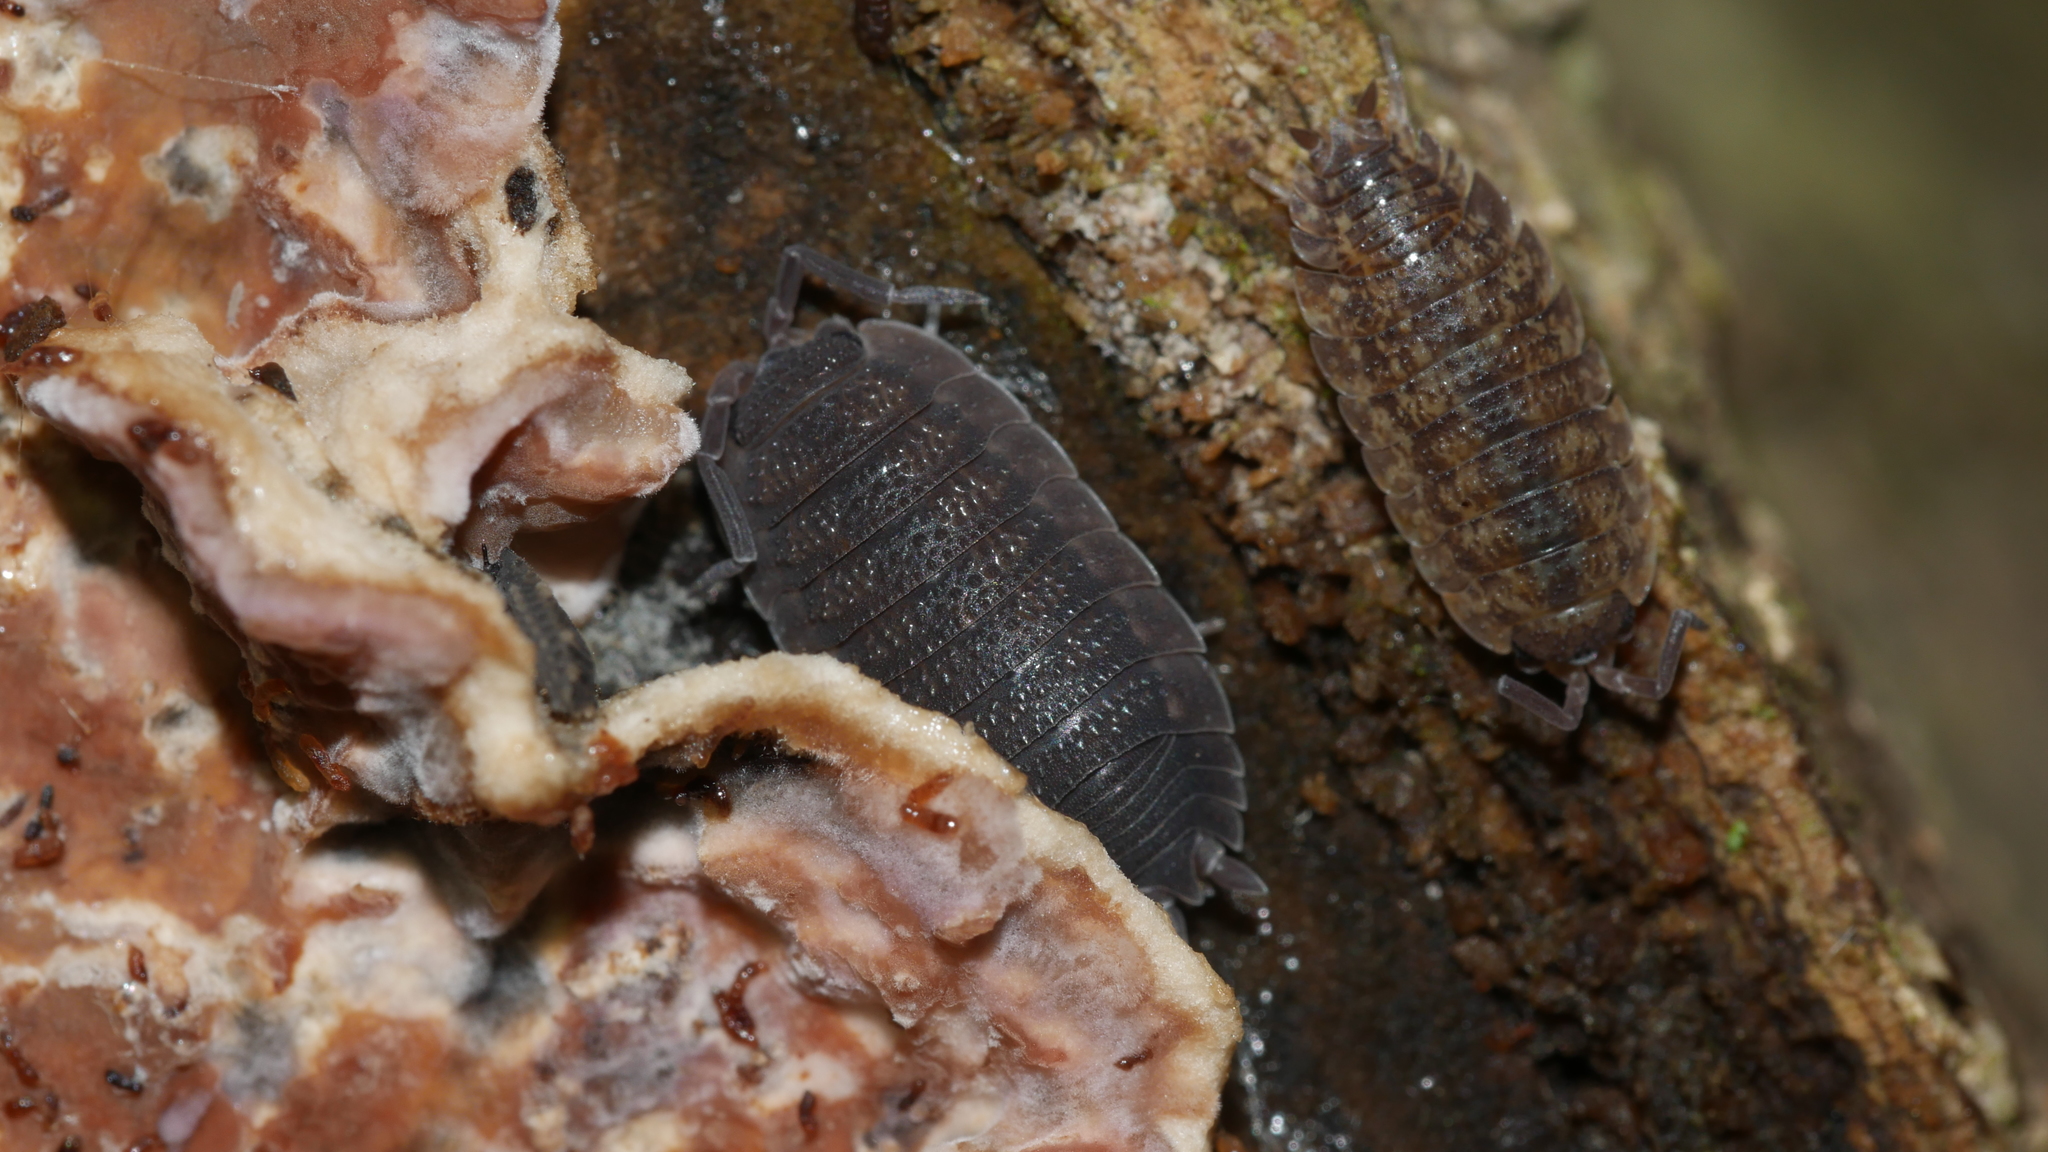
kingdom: Animalia
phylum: Arthropoda
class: Malacostraca
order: Isopoda
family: Porcellionidae
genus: Porcellio
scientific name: Porcellio scaber
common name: Common rough woodlouse
